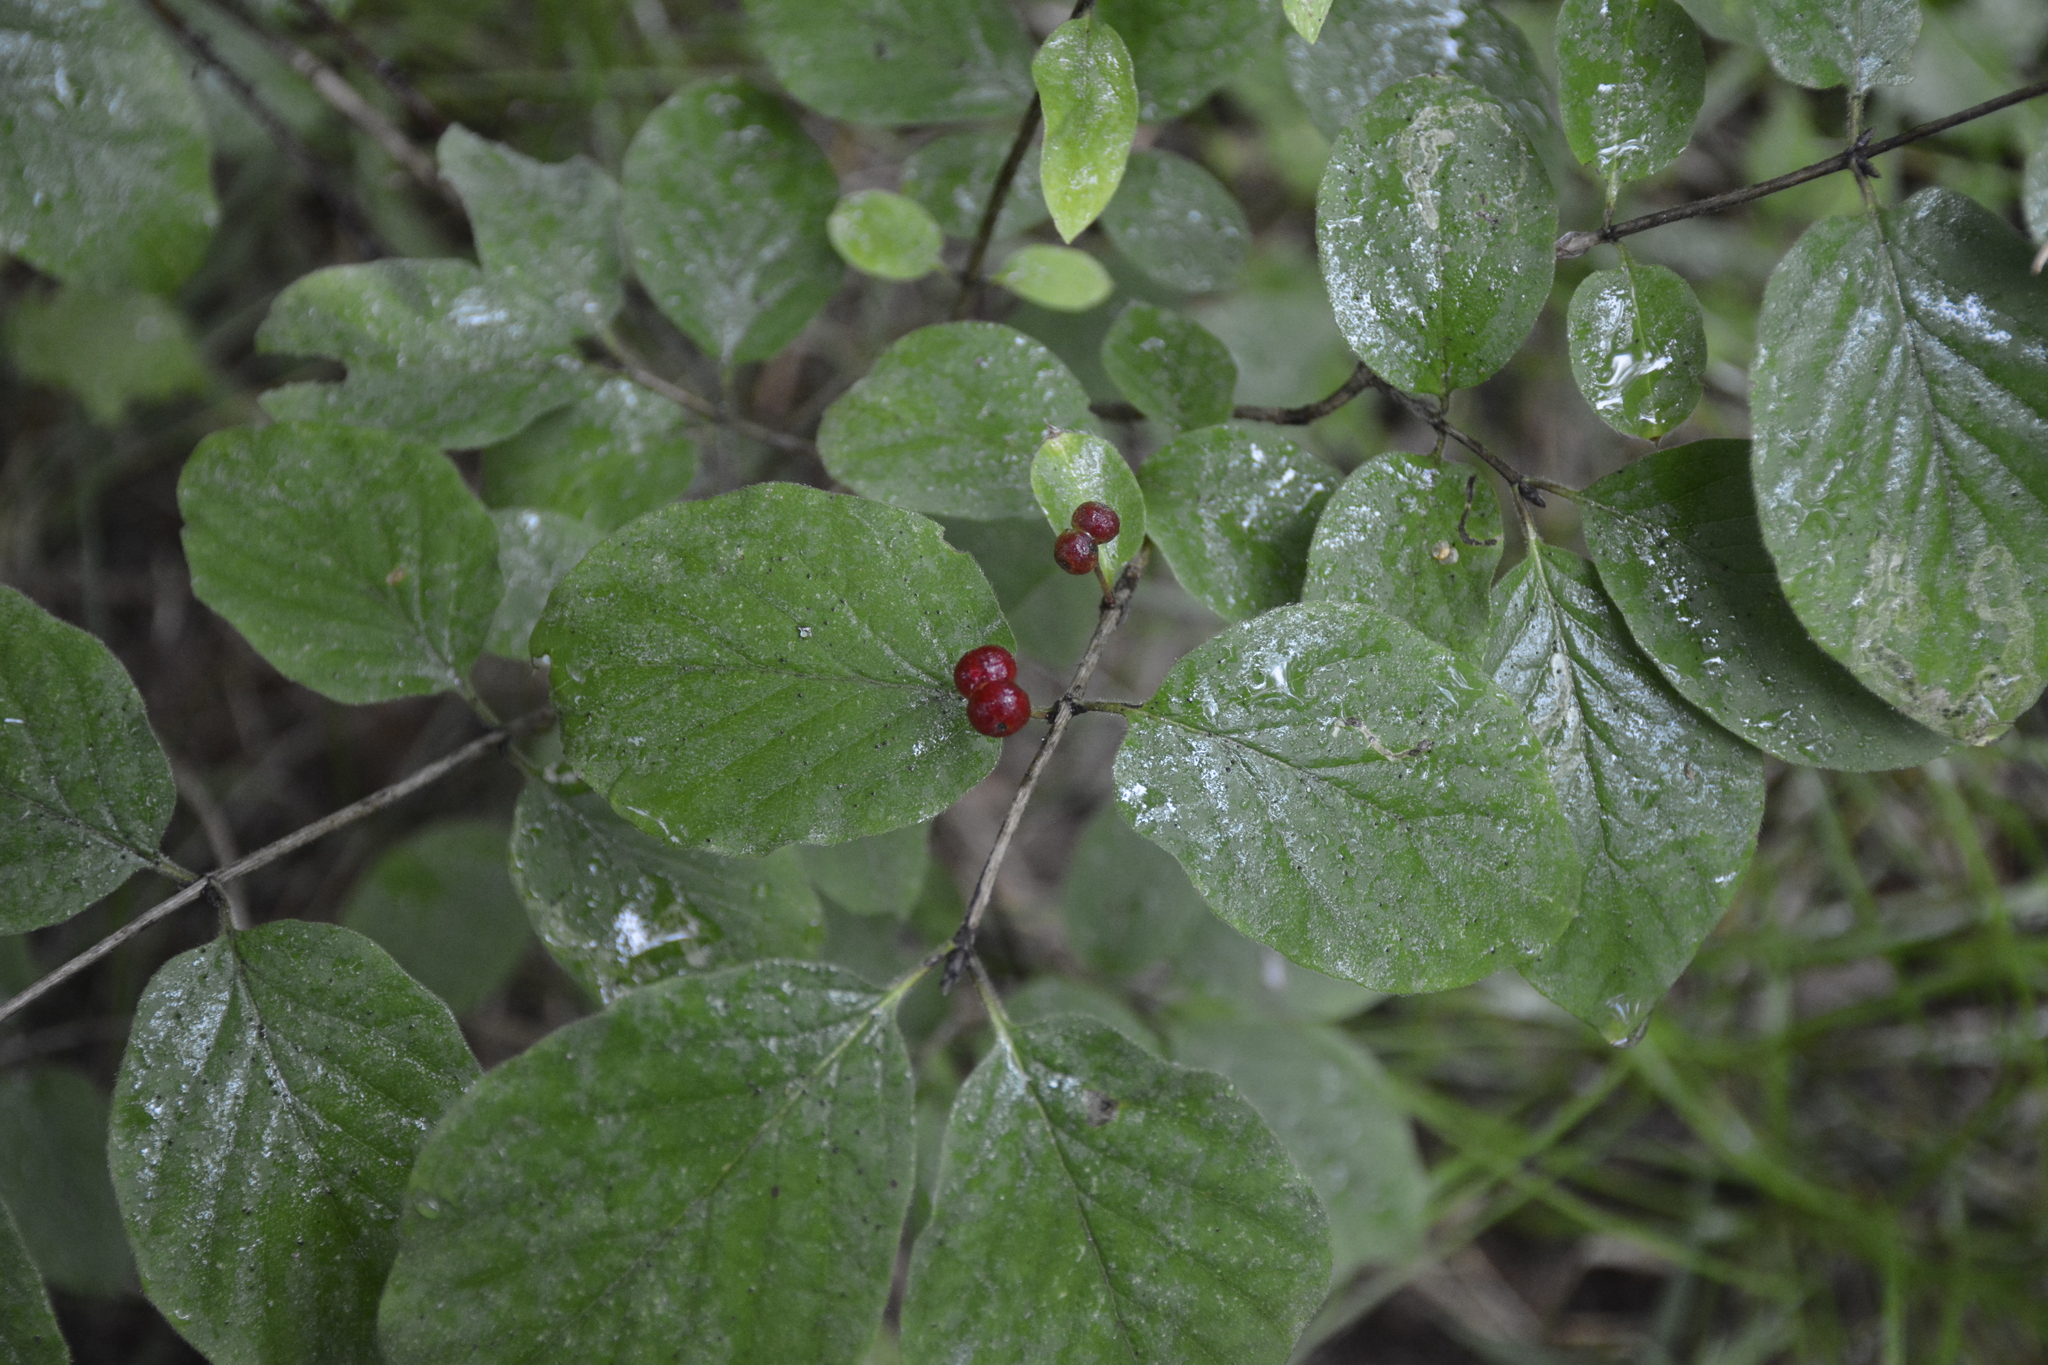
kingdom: Plantae
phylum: Tracheophyta
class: Magnoliopsida
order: Dipsacales
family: Caprifoliaceae
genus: Lonicera
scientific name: Lonicera xylosteum
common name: Fly honeysuckle
